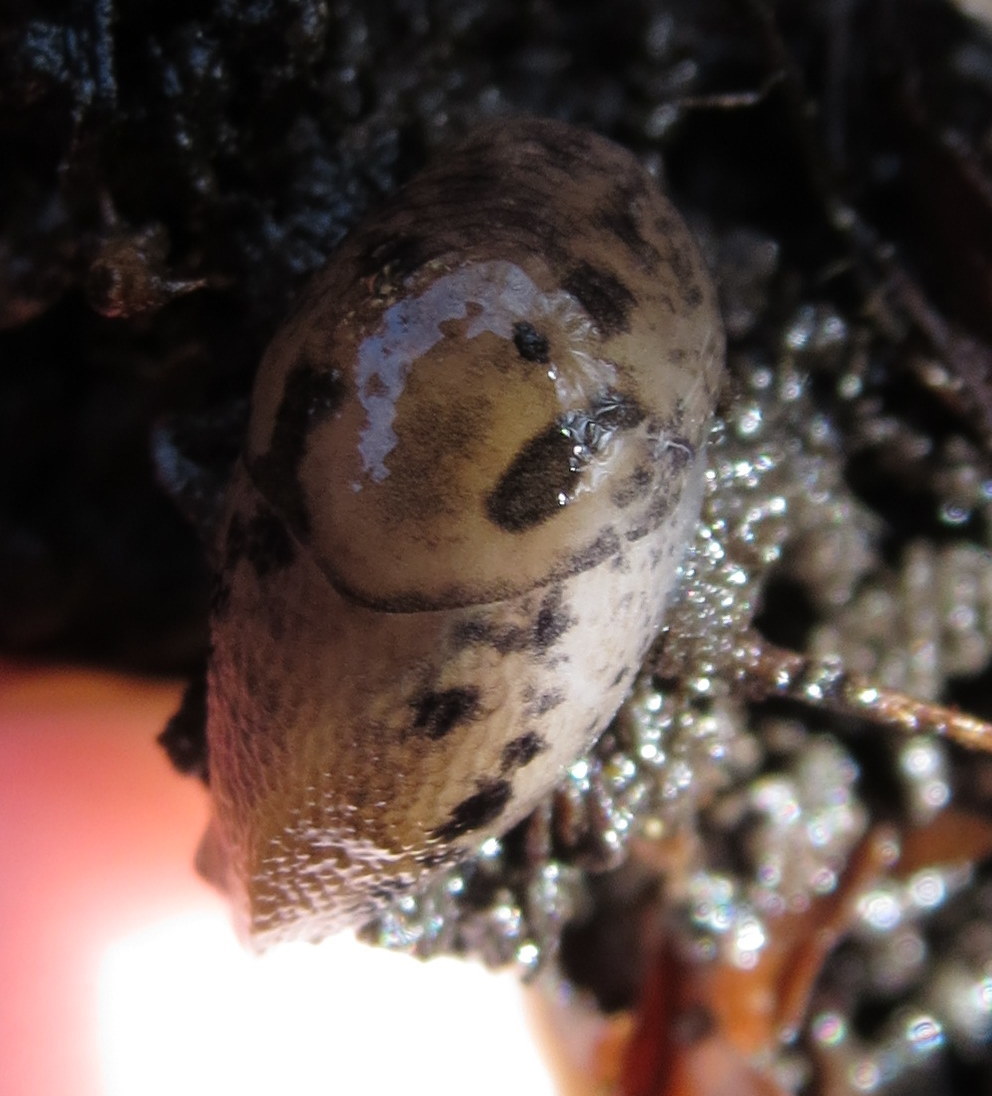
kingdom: Animalia
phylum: Mollusca
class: Gastropoda
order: Stylommatophora
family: Limacidae
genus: Limax
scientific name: Limax maximus
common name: Great grey slug
